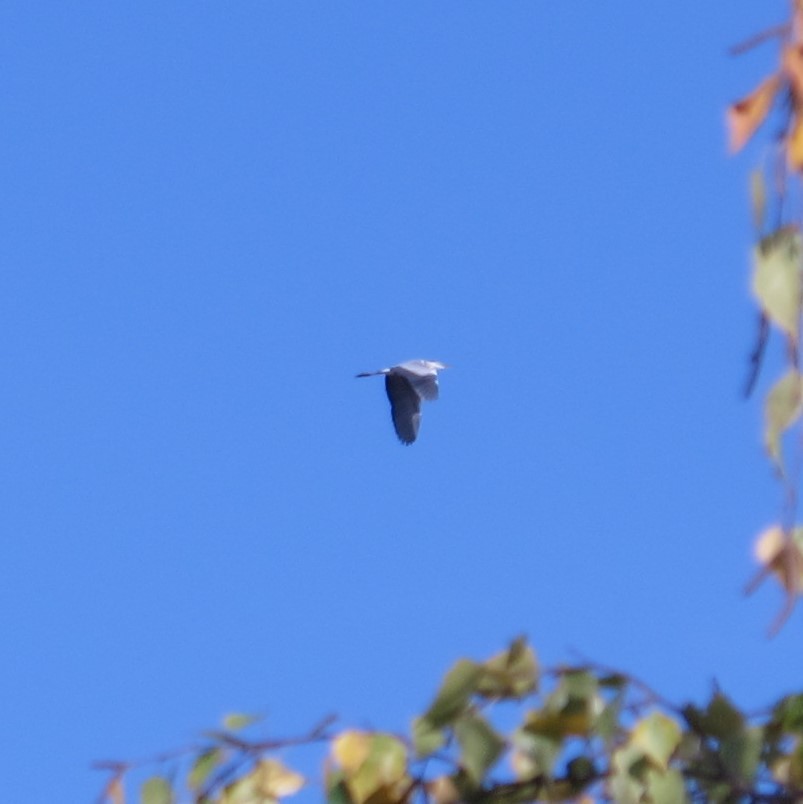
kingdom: Animalia
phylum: Chordata
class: Aves
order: Pelecaniformes
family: Ardeidae
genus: Ardea
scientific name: Ardea cinerea
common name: Grey heron
